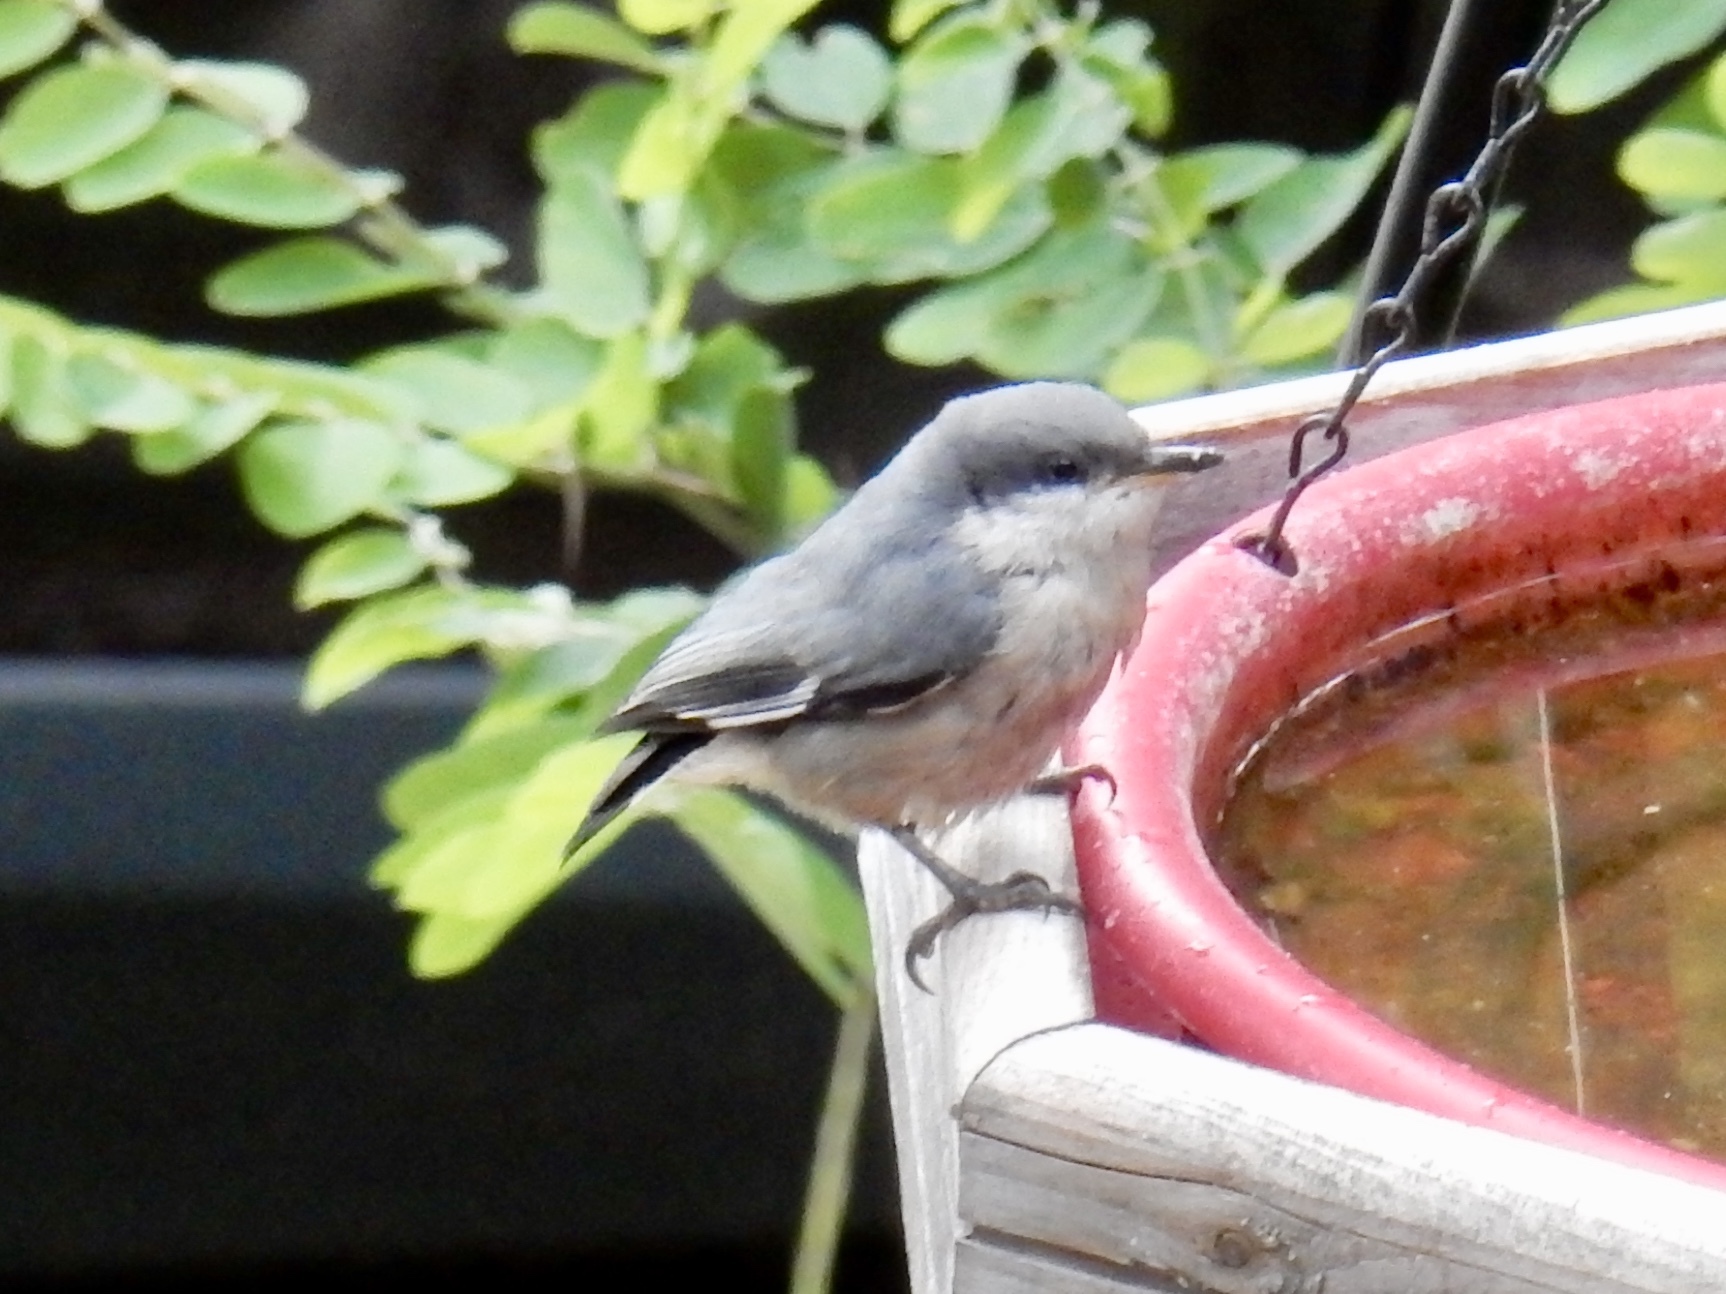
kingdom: Animalia
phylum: Chordata
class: Aves
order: Passeriformes
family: Sittidae
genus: Sitta
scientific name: Sitta pygmaea
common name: Pygmy nuthatch
